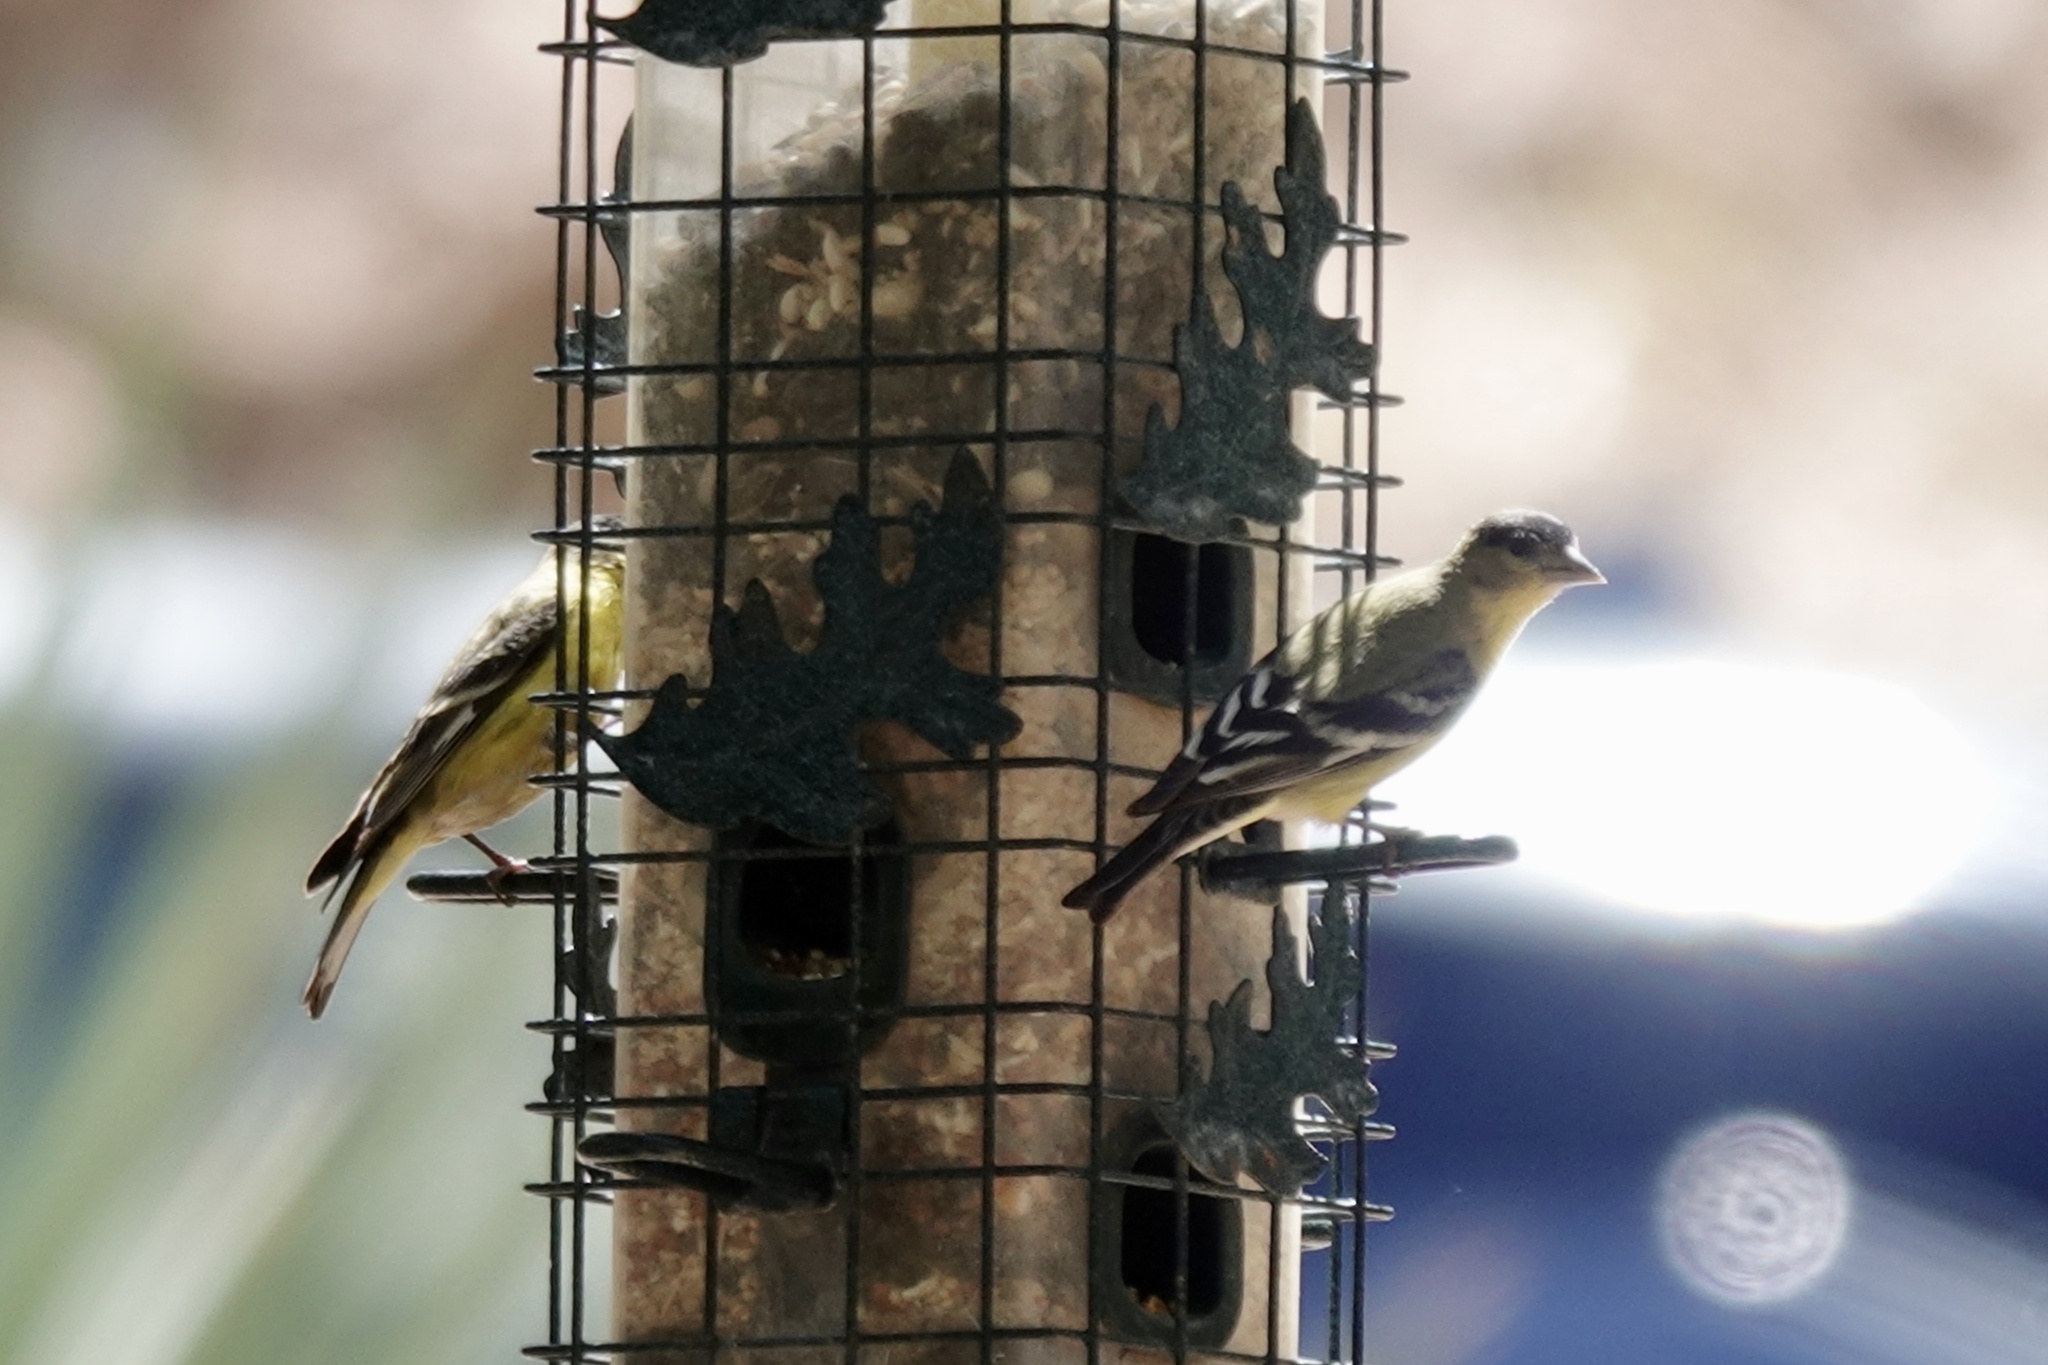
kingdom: Animalia
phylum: Chordata
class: Aves
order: Passeriformes
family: Fringillidae
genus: Spinus
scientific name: Spinus psaltria
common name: Lesser goldfinch
